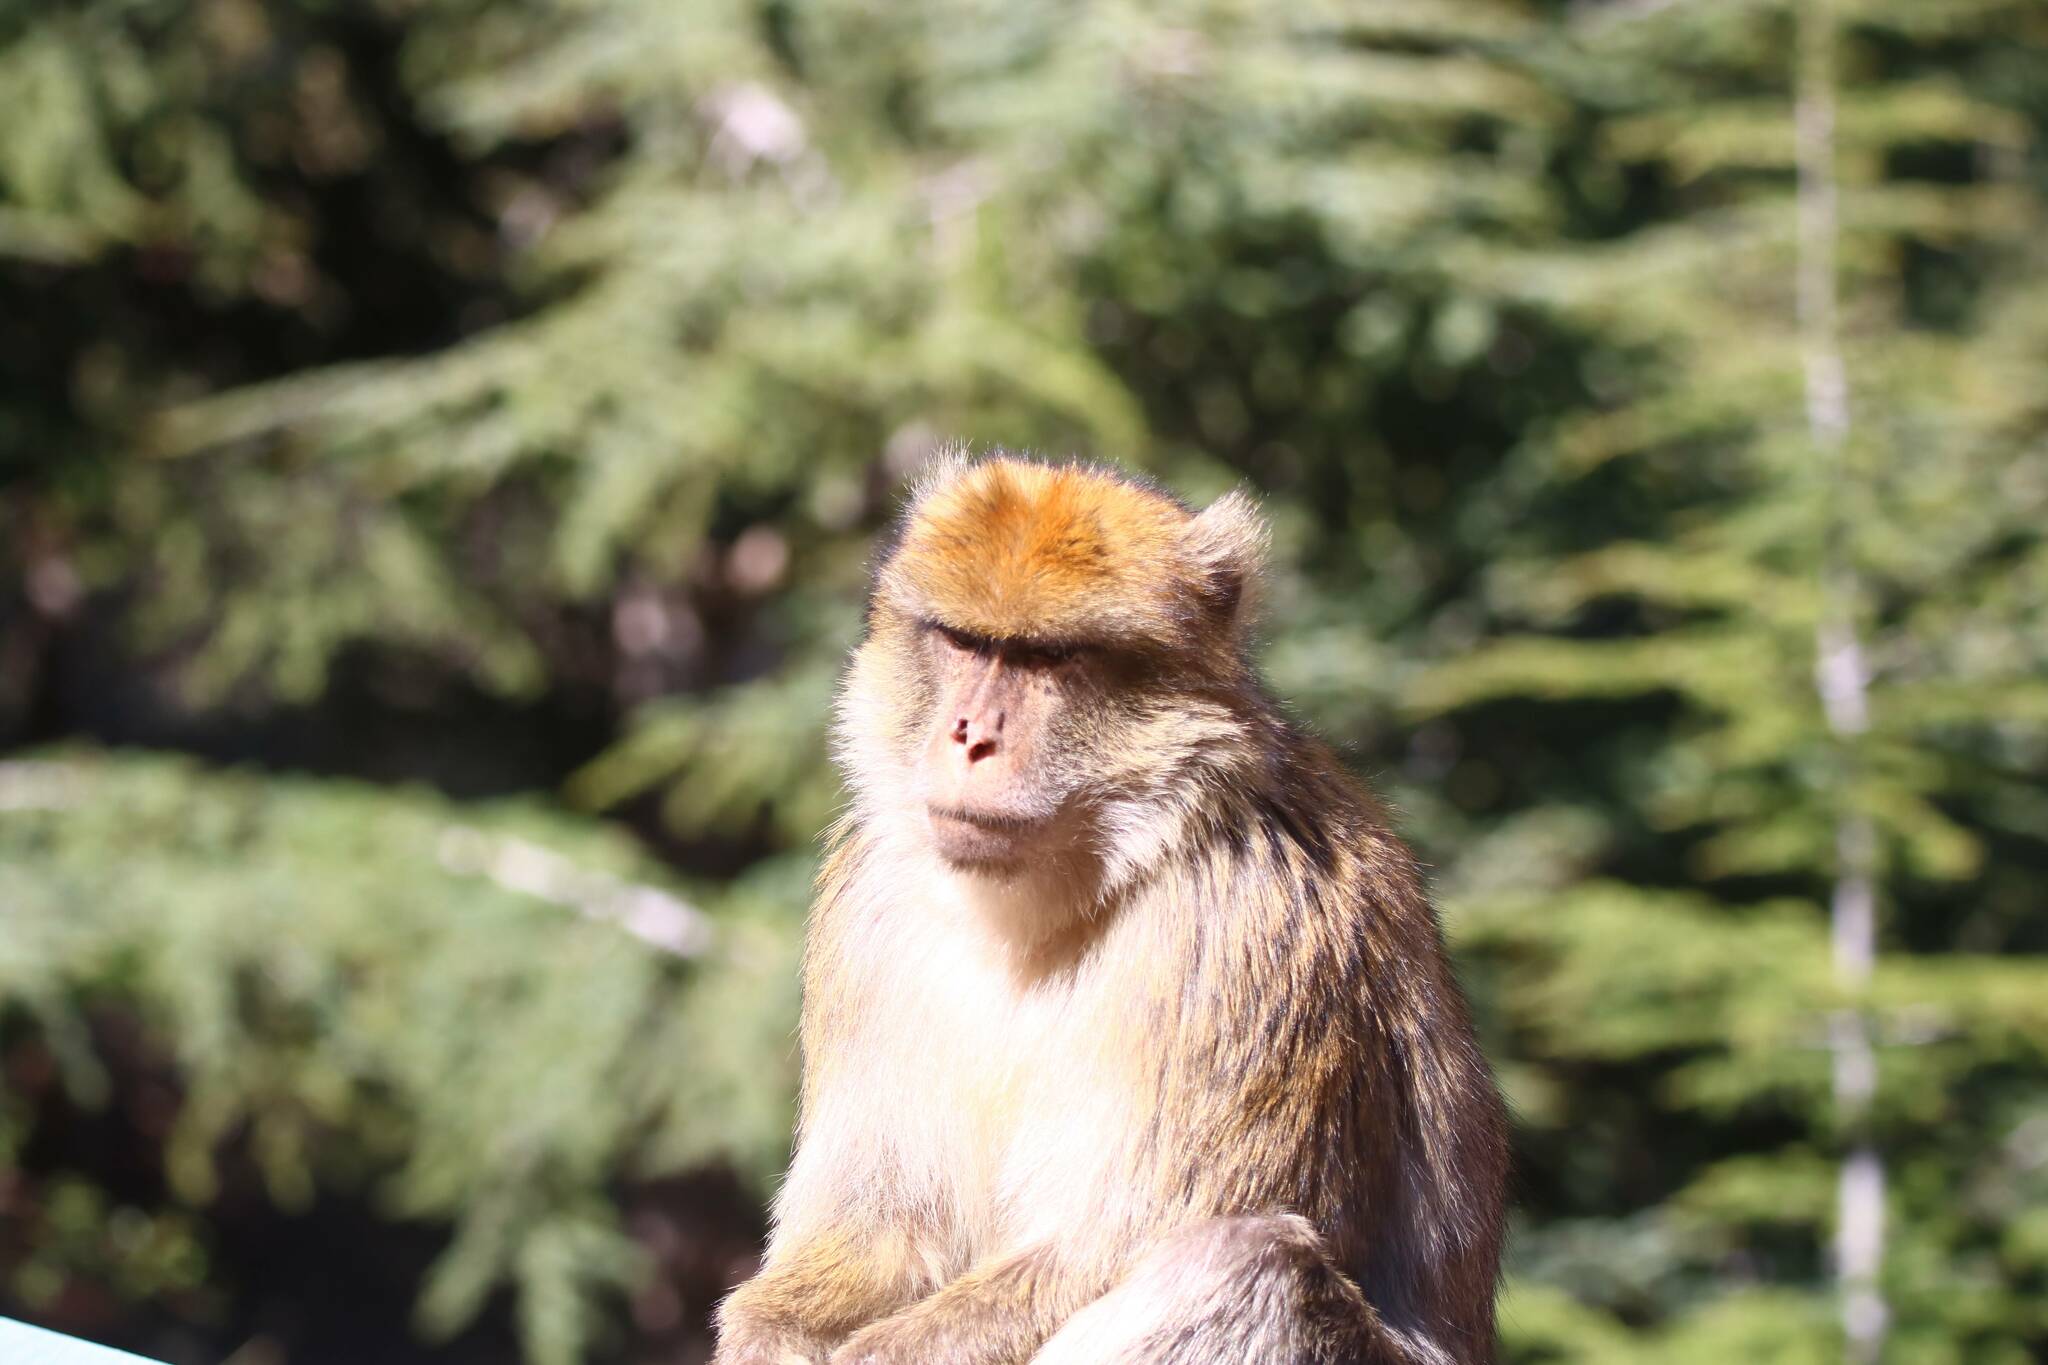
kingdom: Animalia
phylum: Chordata
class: Mammalia
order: Primates
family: Cercopithecidae
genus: Macaca
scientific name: Macaca sylvanus
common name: Barbary macaque
